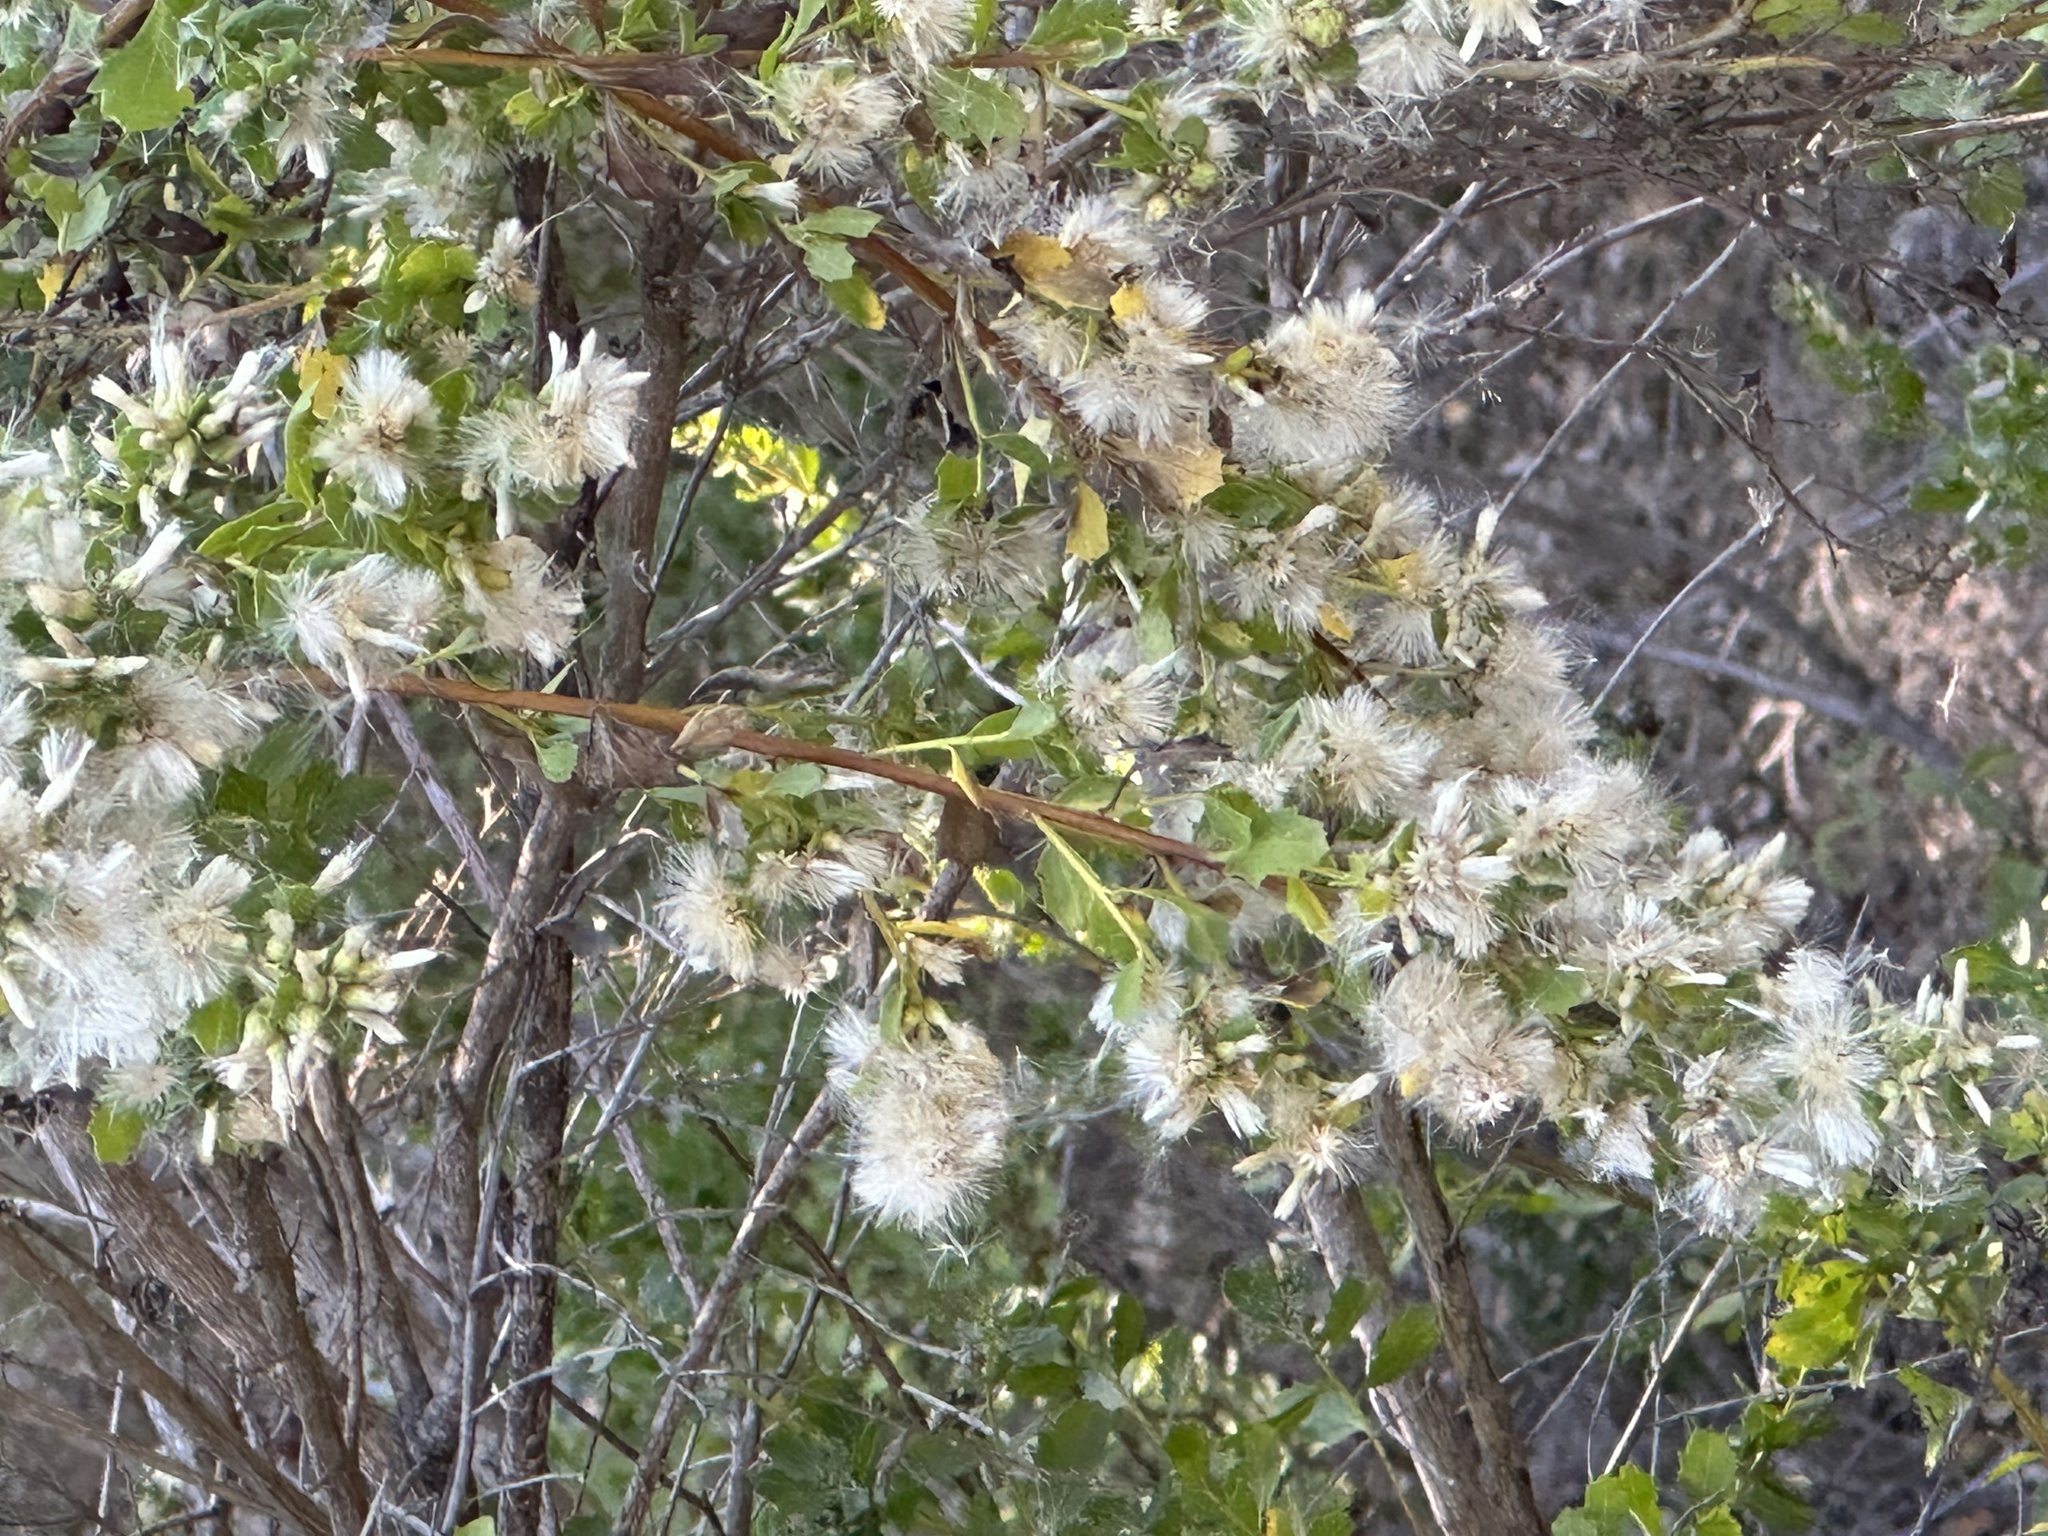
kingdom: Plantae
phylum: Tracheophyta
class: Magnoliopsida
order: Asterales
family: Asteraceae
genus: Baccharis
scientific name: Baccharis pilularis
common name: Coyotebrush
